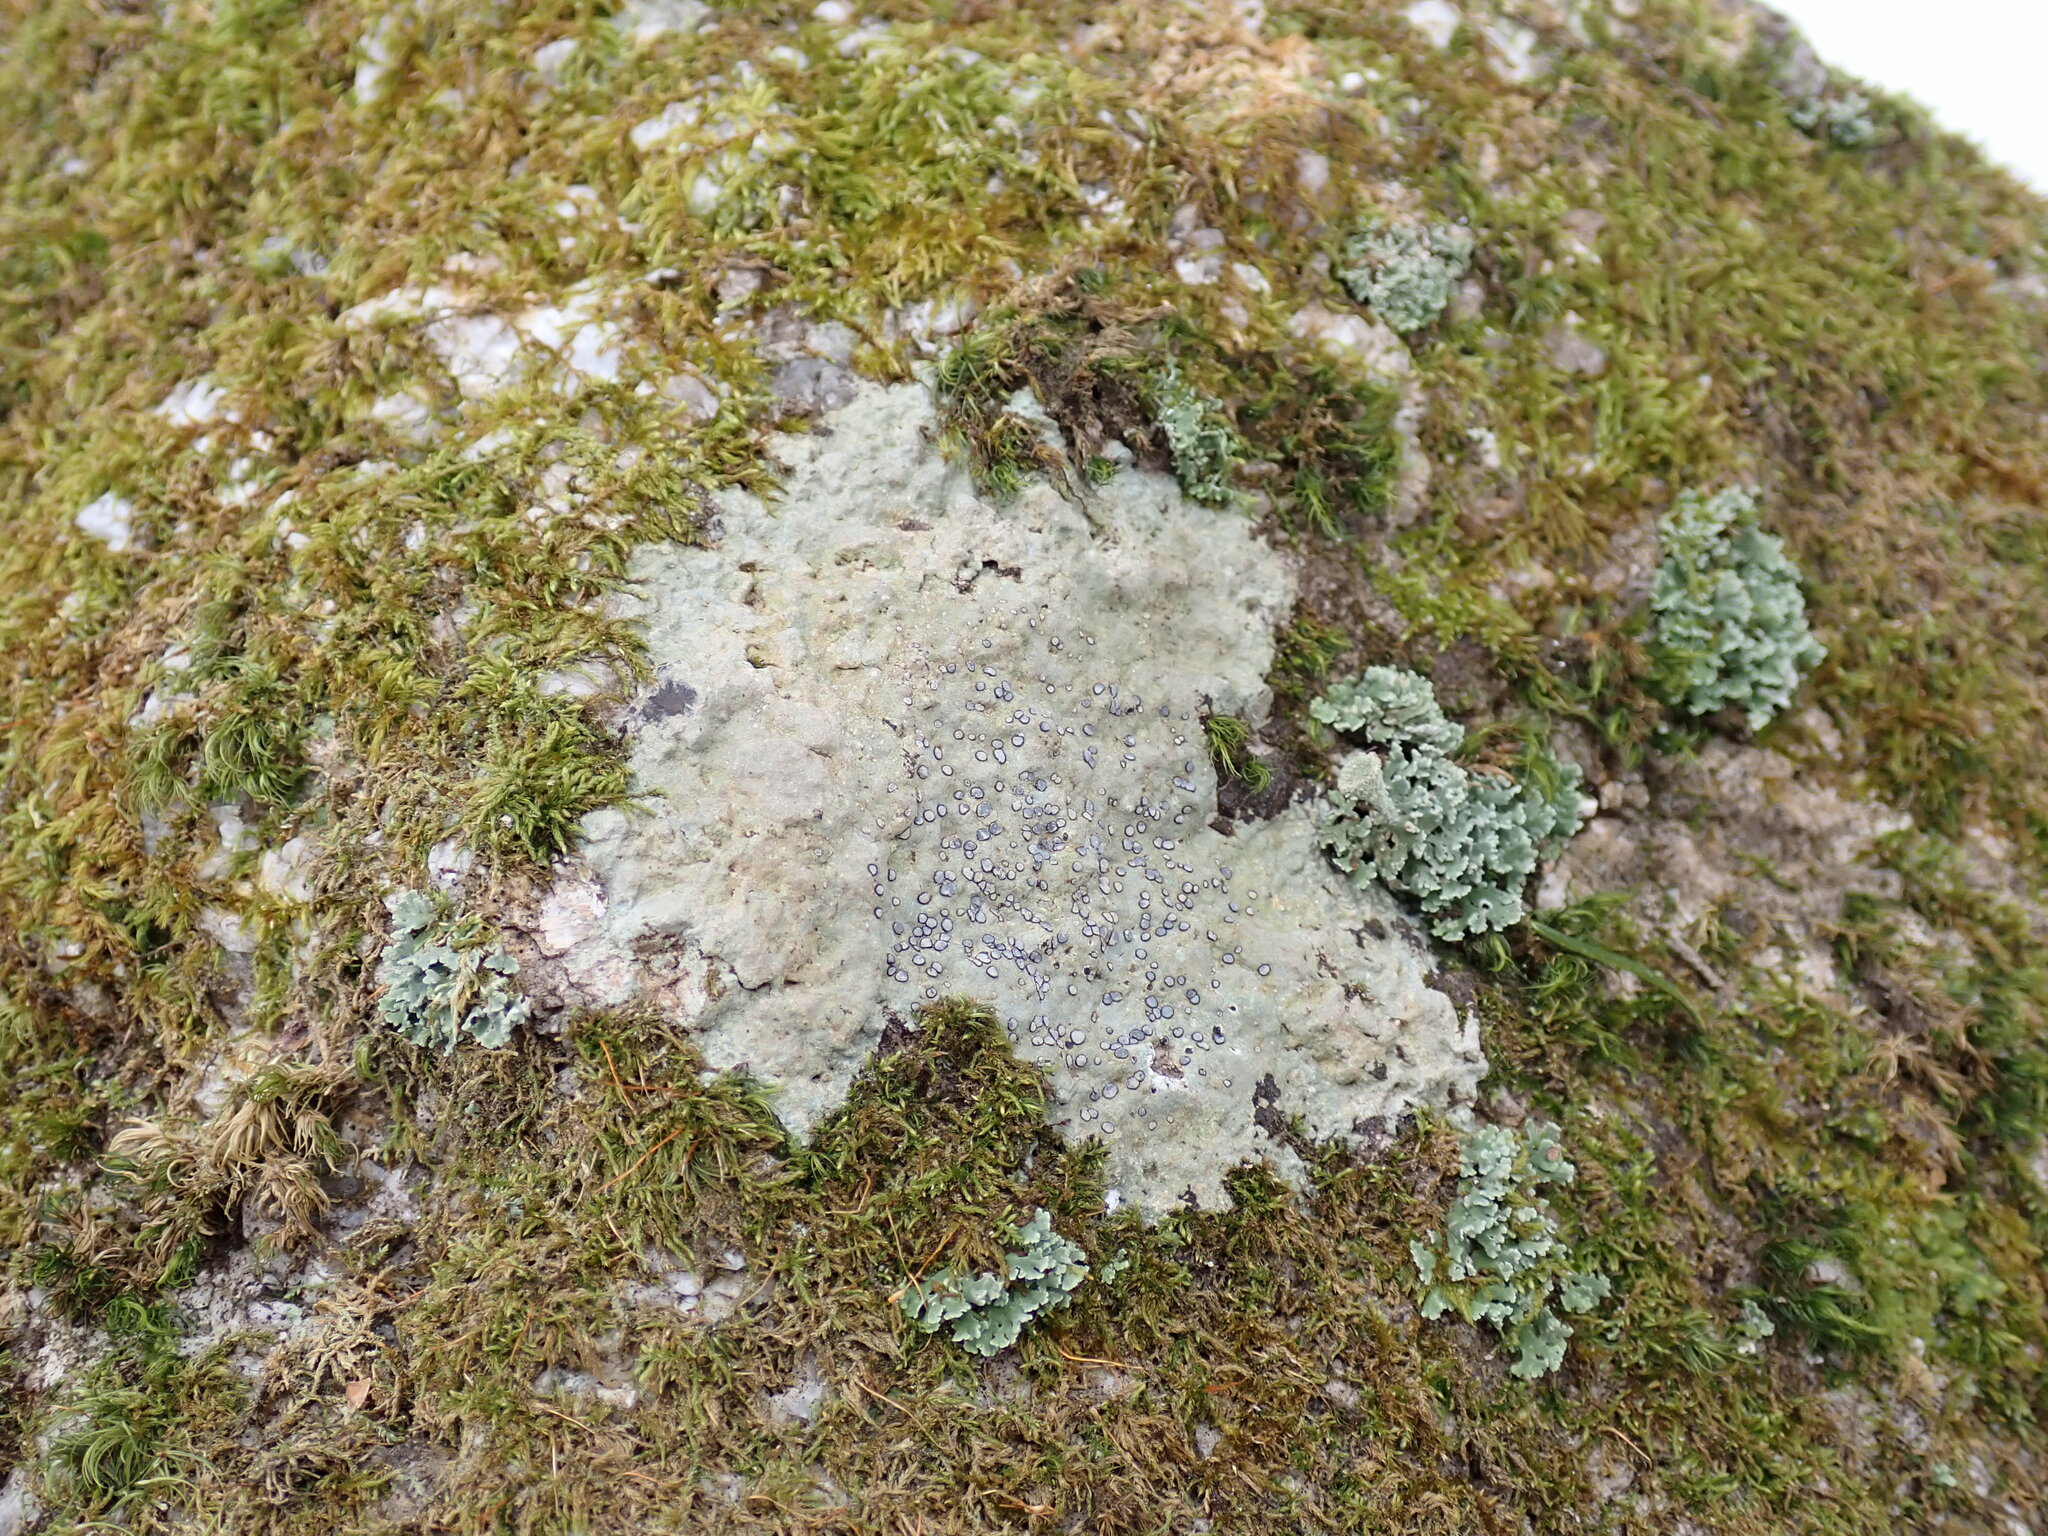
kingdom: Fungi
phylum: Ascomycota
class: Lecanoromycetes
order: Lecideales
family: Lecideaceae
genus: Porpidia
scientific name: Porpidia albocaerulescens
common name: Smokey-eyed boulder lichen
